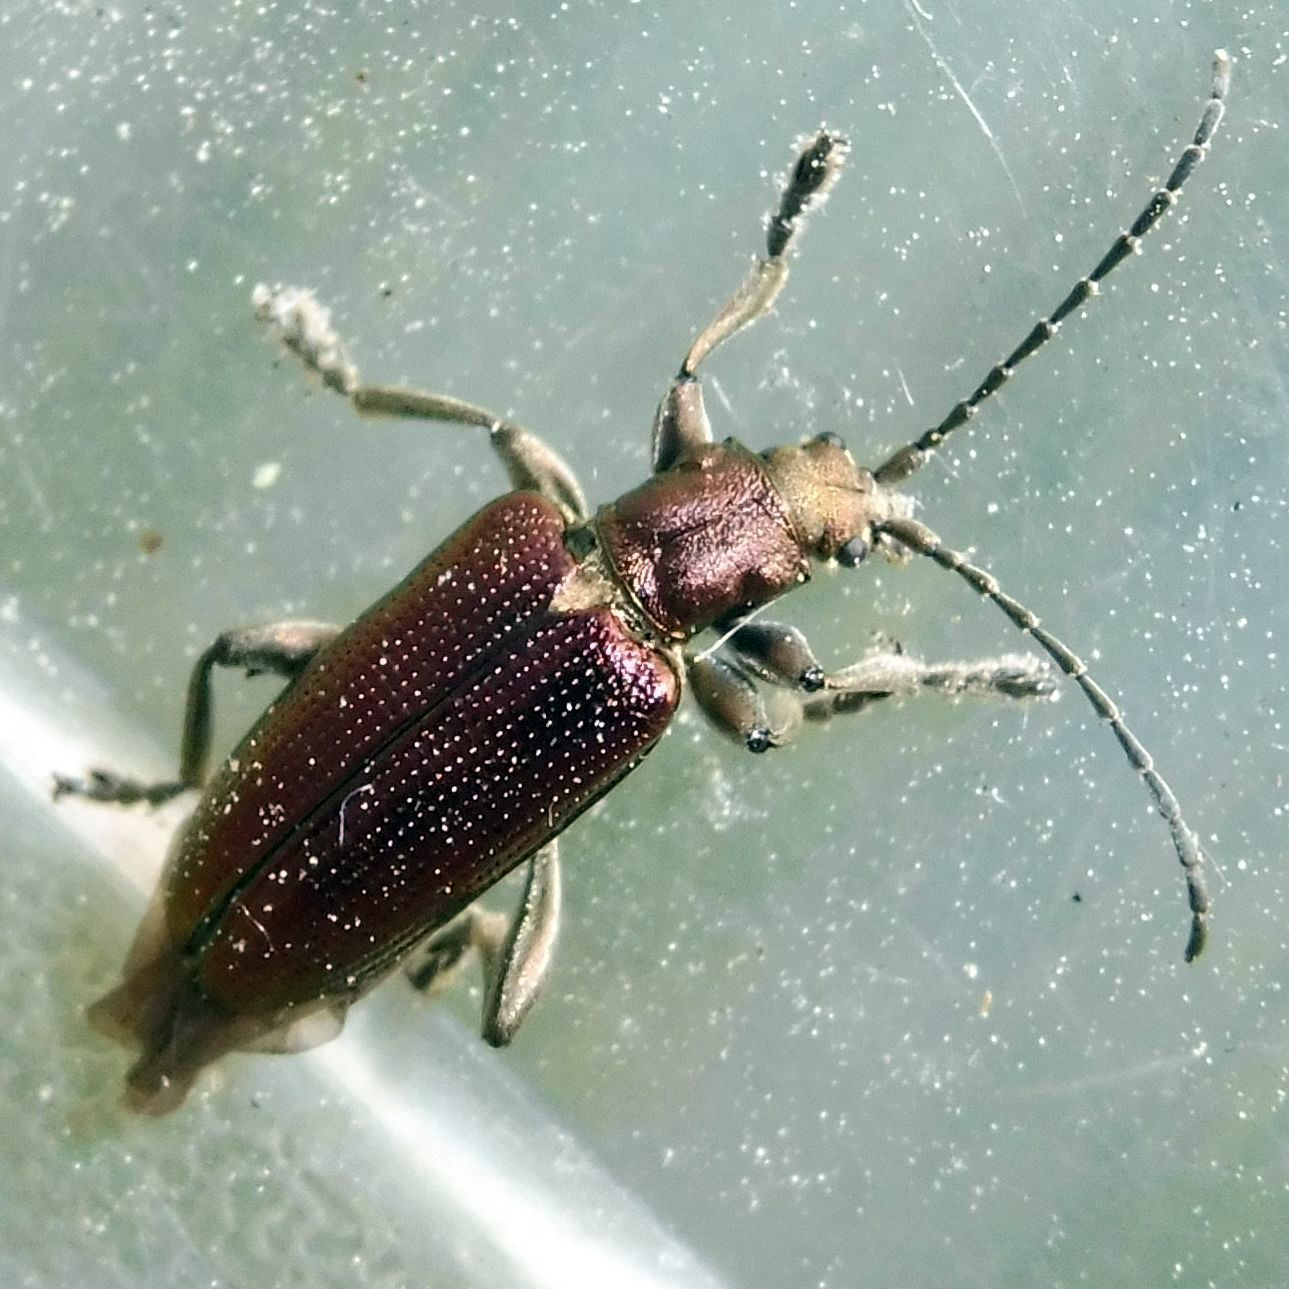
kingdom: Animalia
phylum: Arthropoda
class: Insecta
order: Coleoptera
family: Chrysomelidae
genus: Plateumaris
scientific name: Plateumaris sericea
